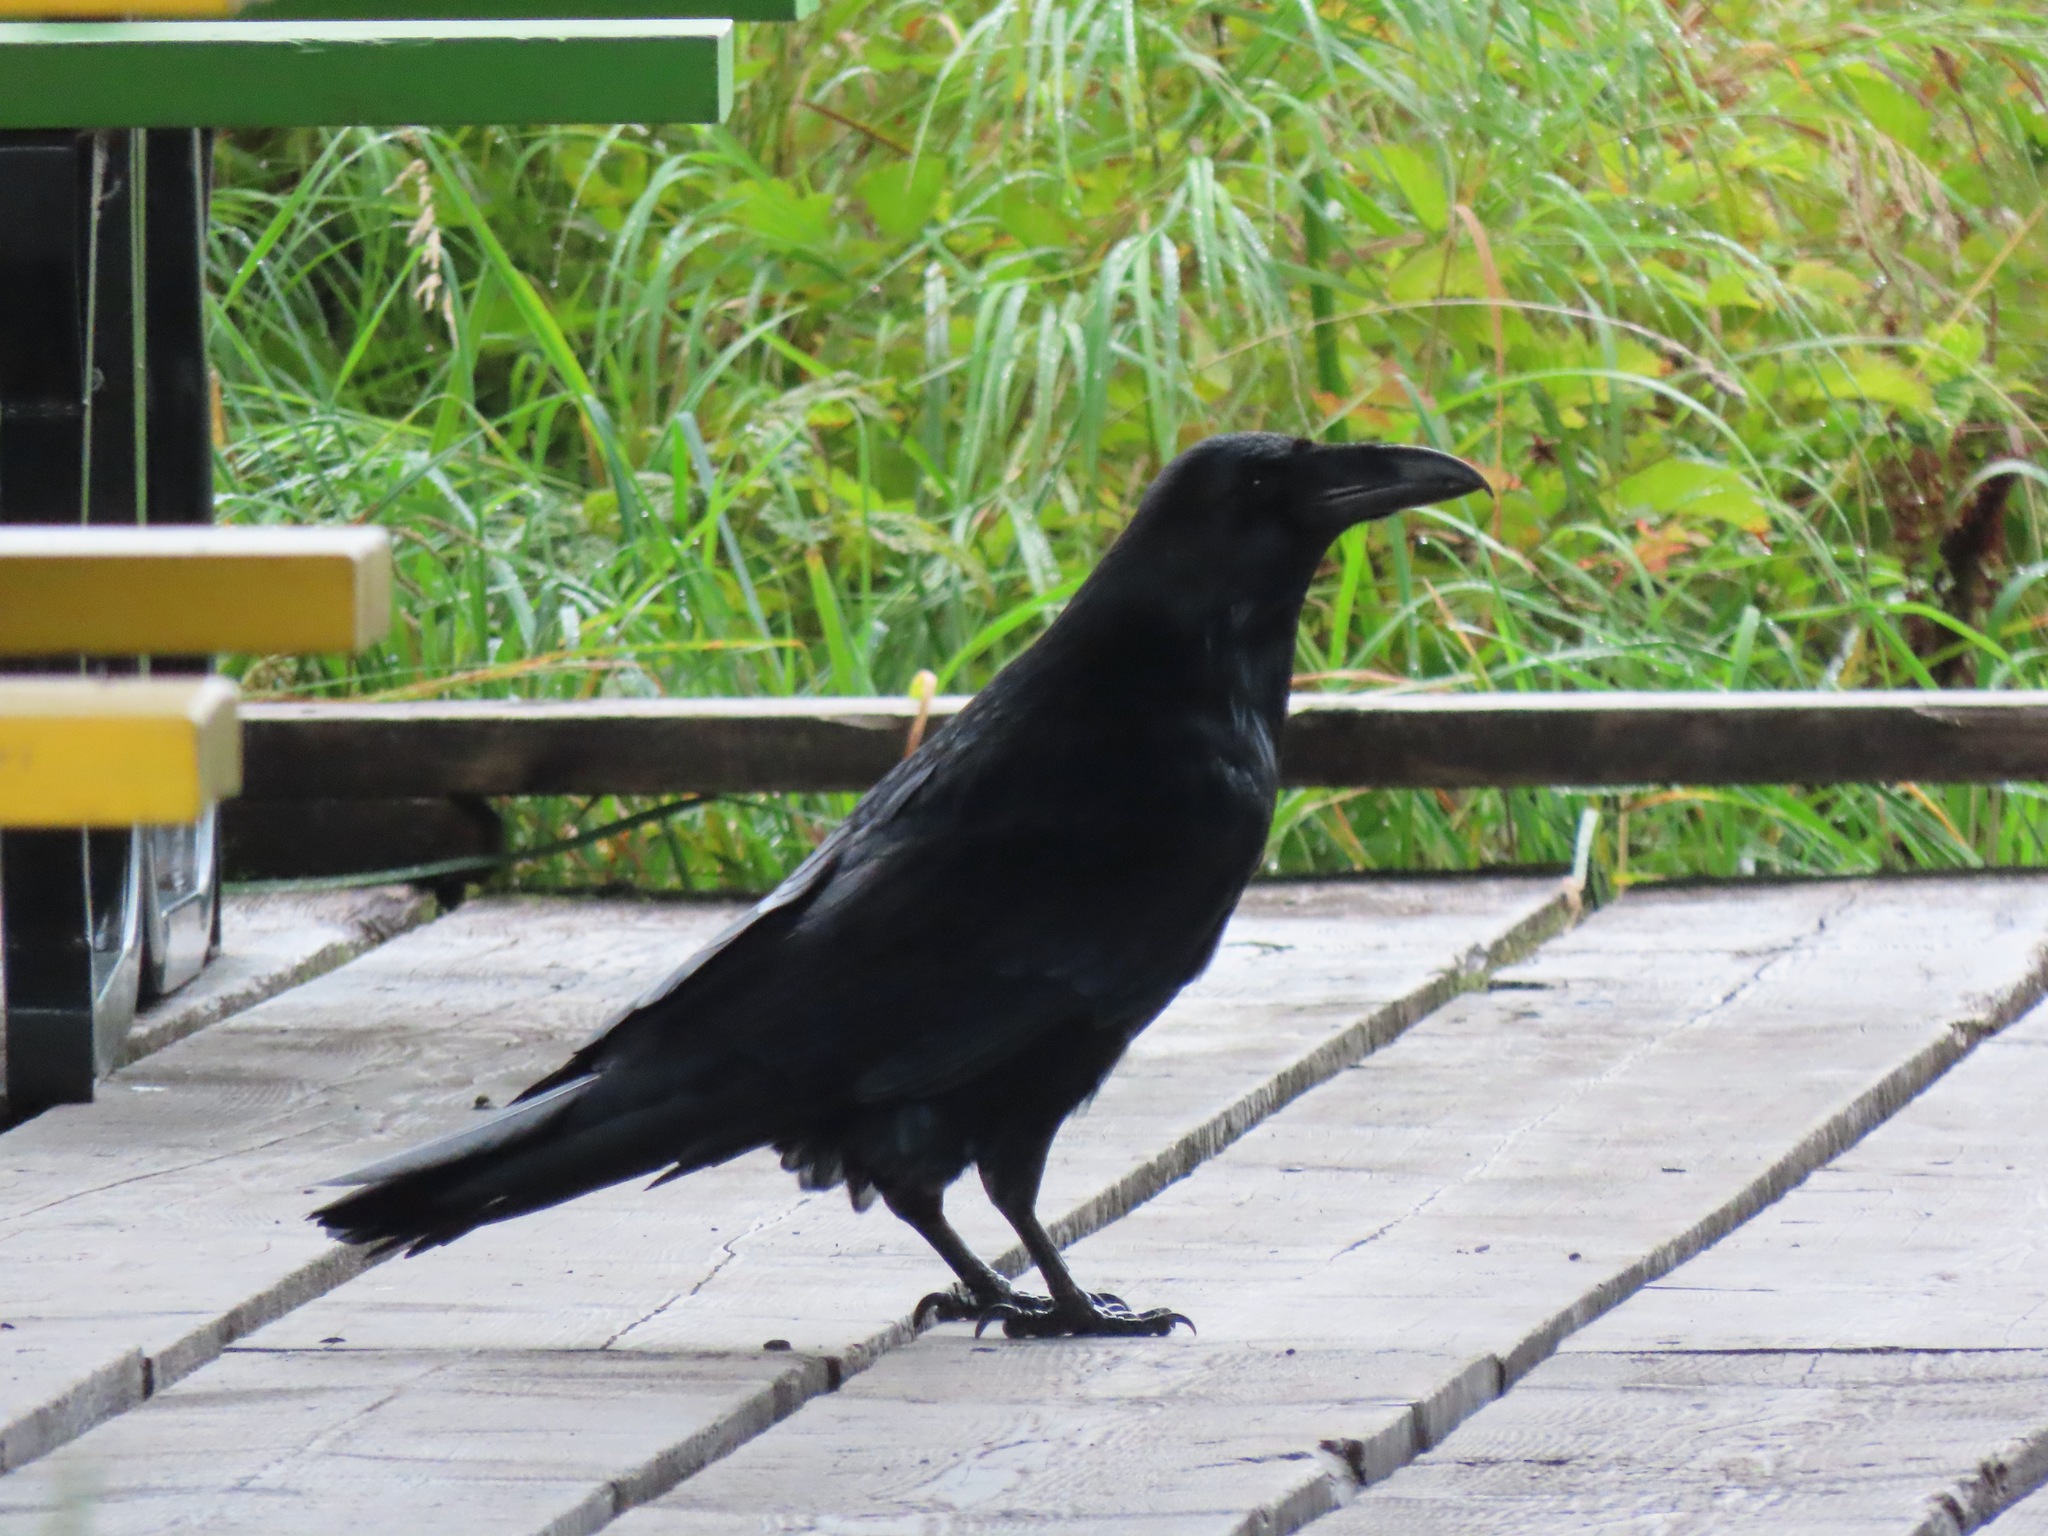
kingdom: Animalia
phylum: Chordata
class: Aves
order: Passeriformes
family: Corvidae
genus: Corvus
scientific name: Corvus corax
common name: Common raven
